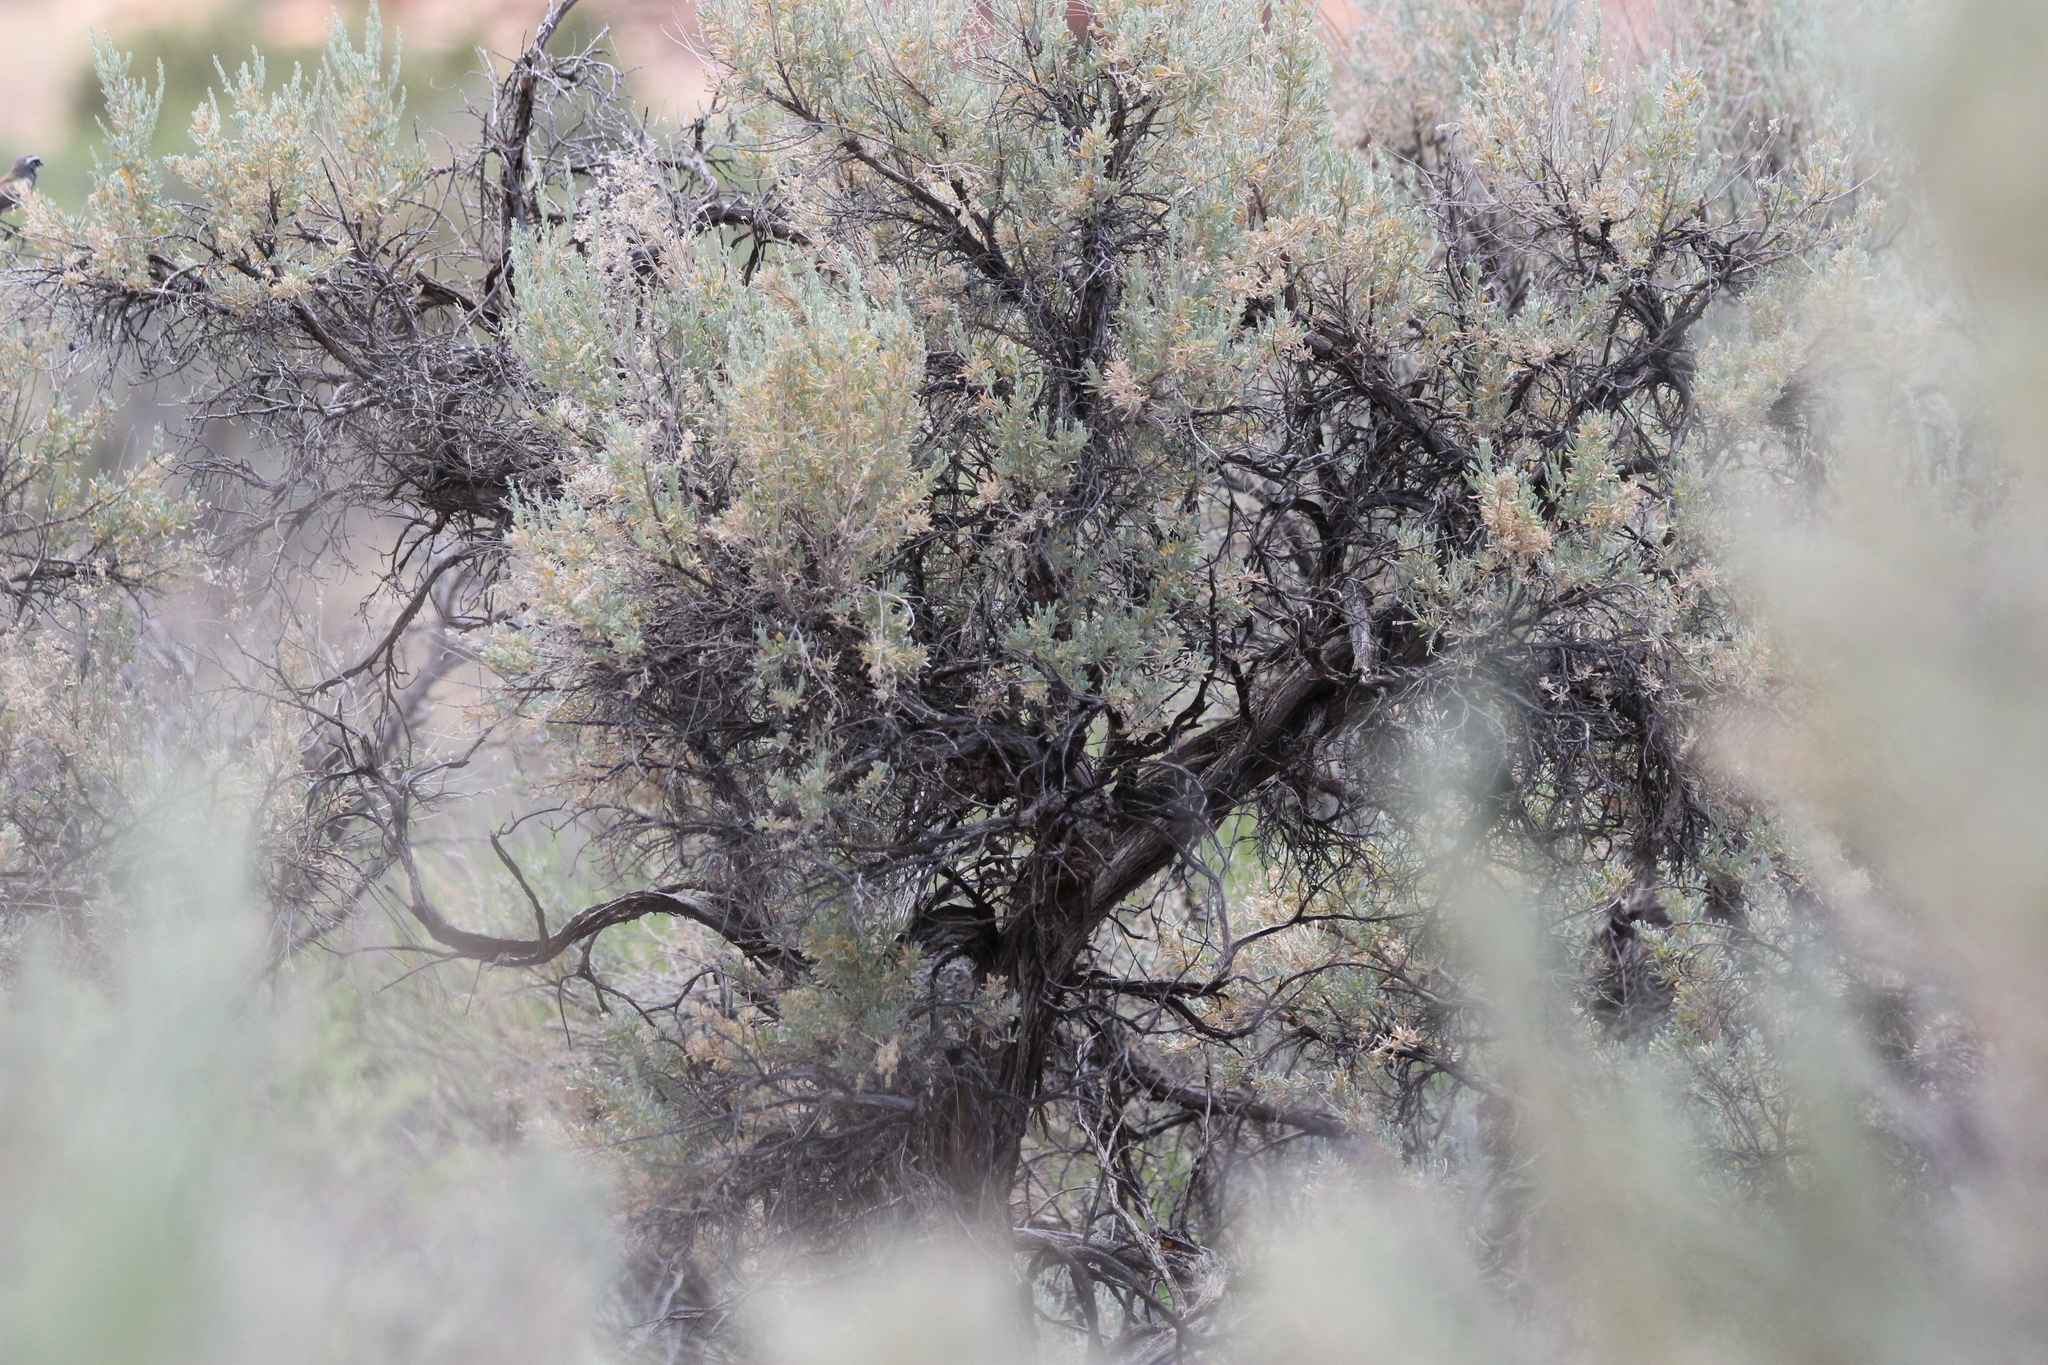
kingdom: Plantae
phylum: Tracheophyta
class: Magnoliopsida
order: Asterales
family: Asteraceae
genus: Artemisia
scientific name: Artemisia tridentata
